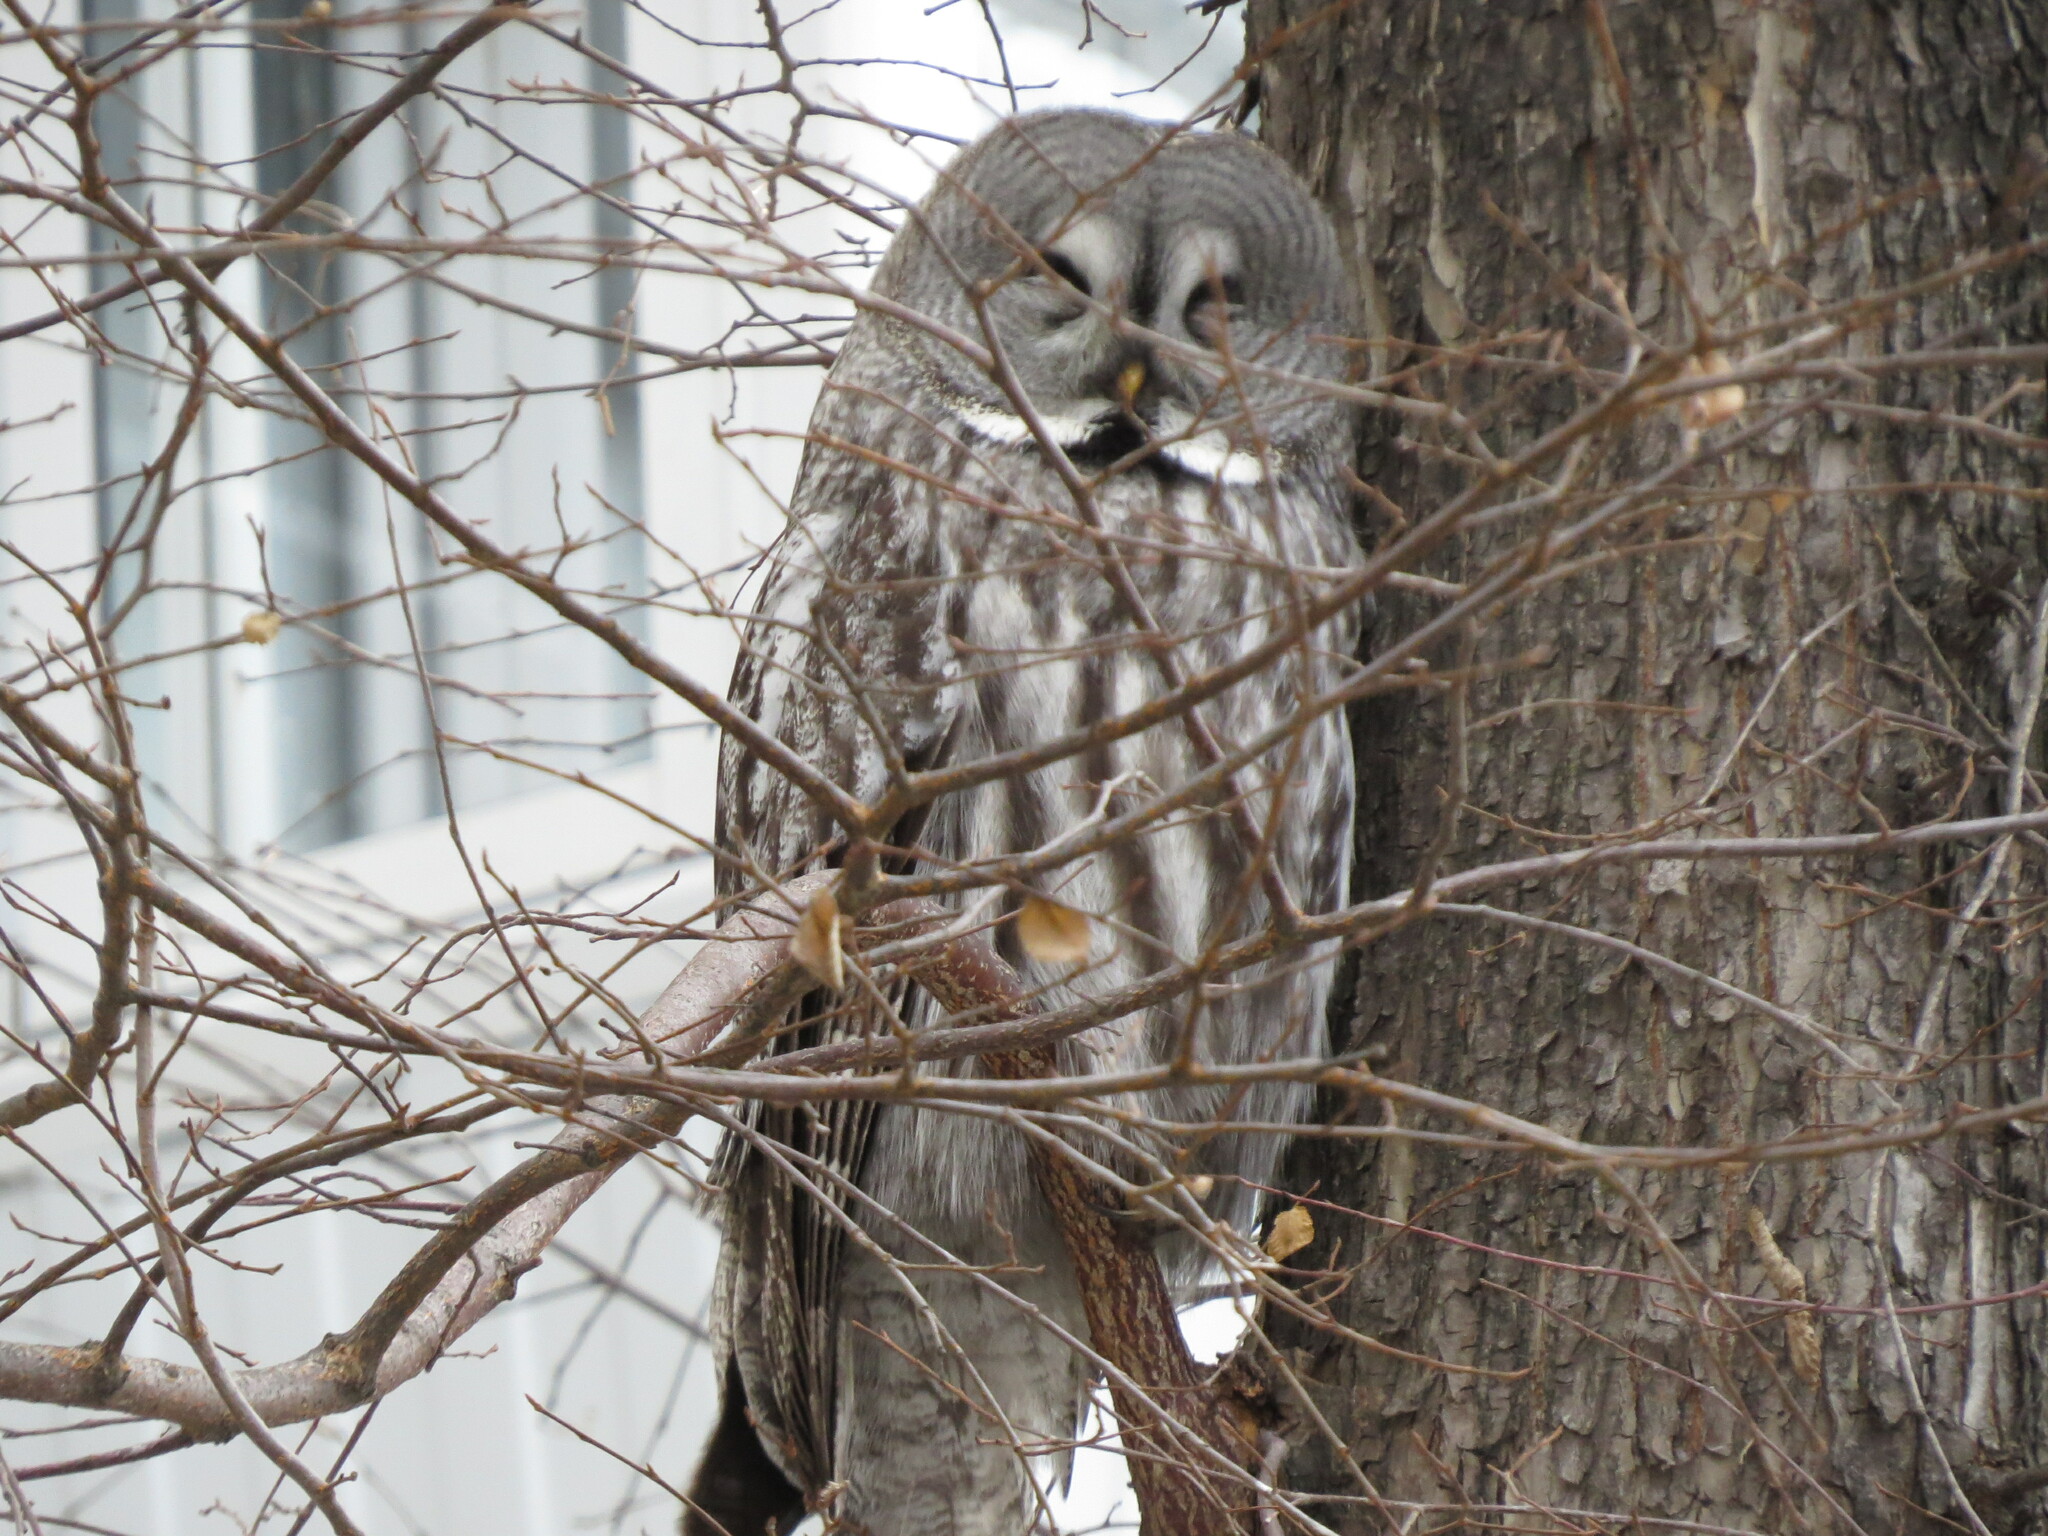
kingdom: Animalia
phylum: Chordata
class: Aves
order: Strigiformes
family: Strigidae
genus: Strix
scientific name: Strix nebulosa
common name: Great grey owl
